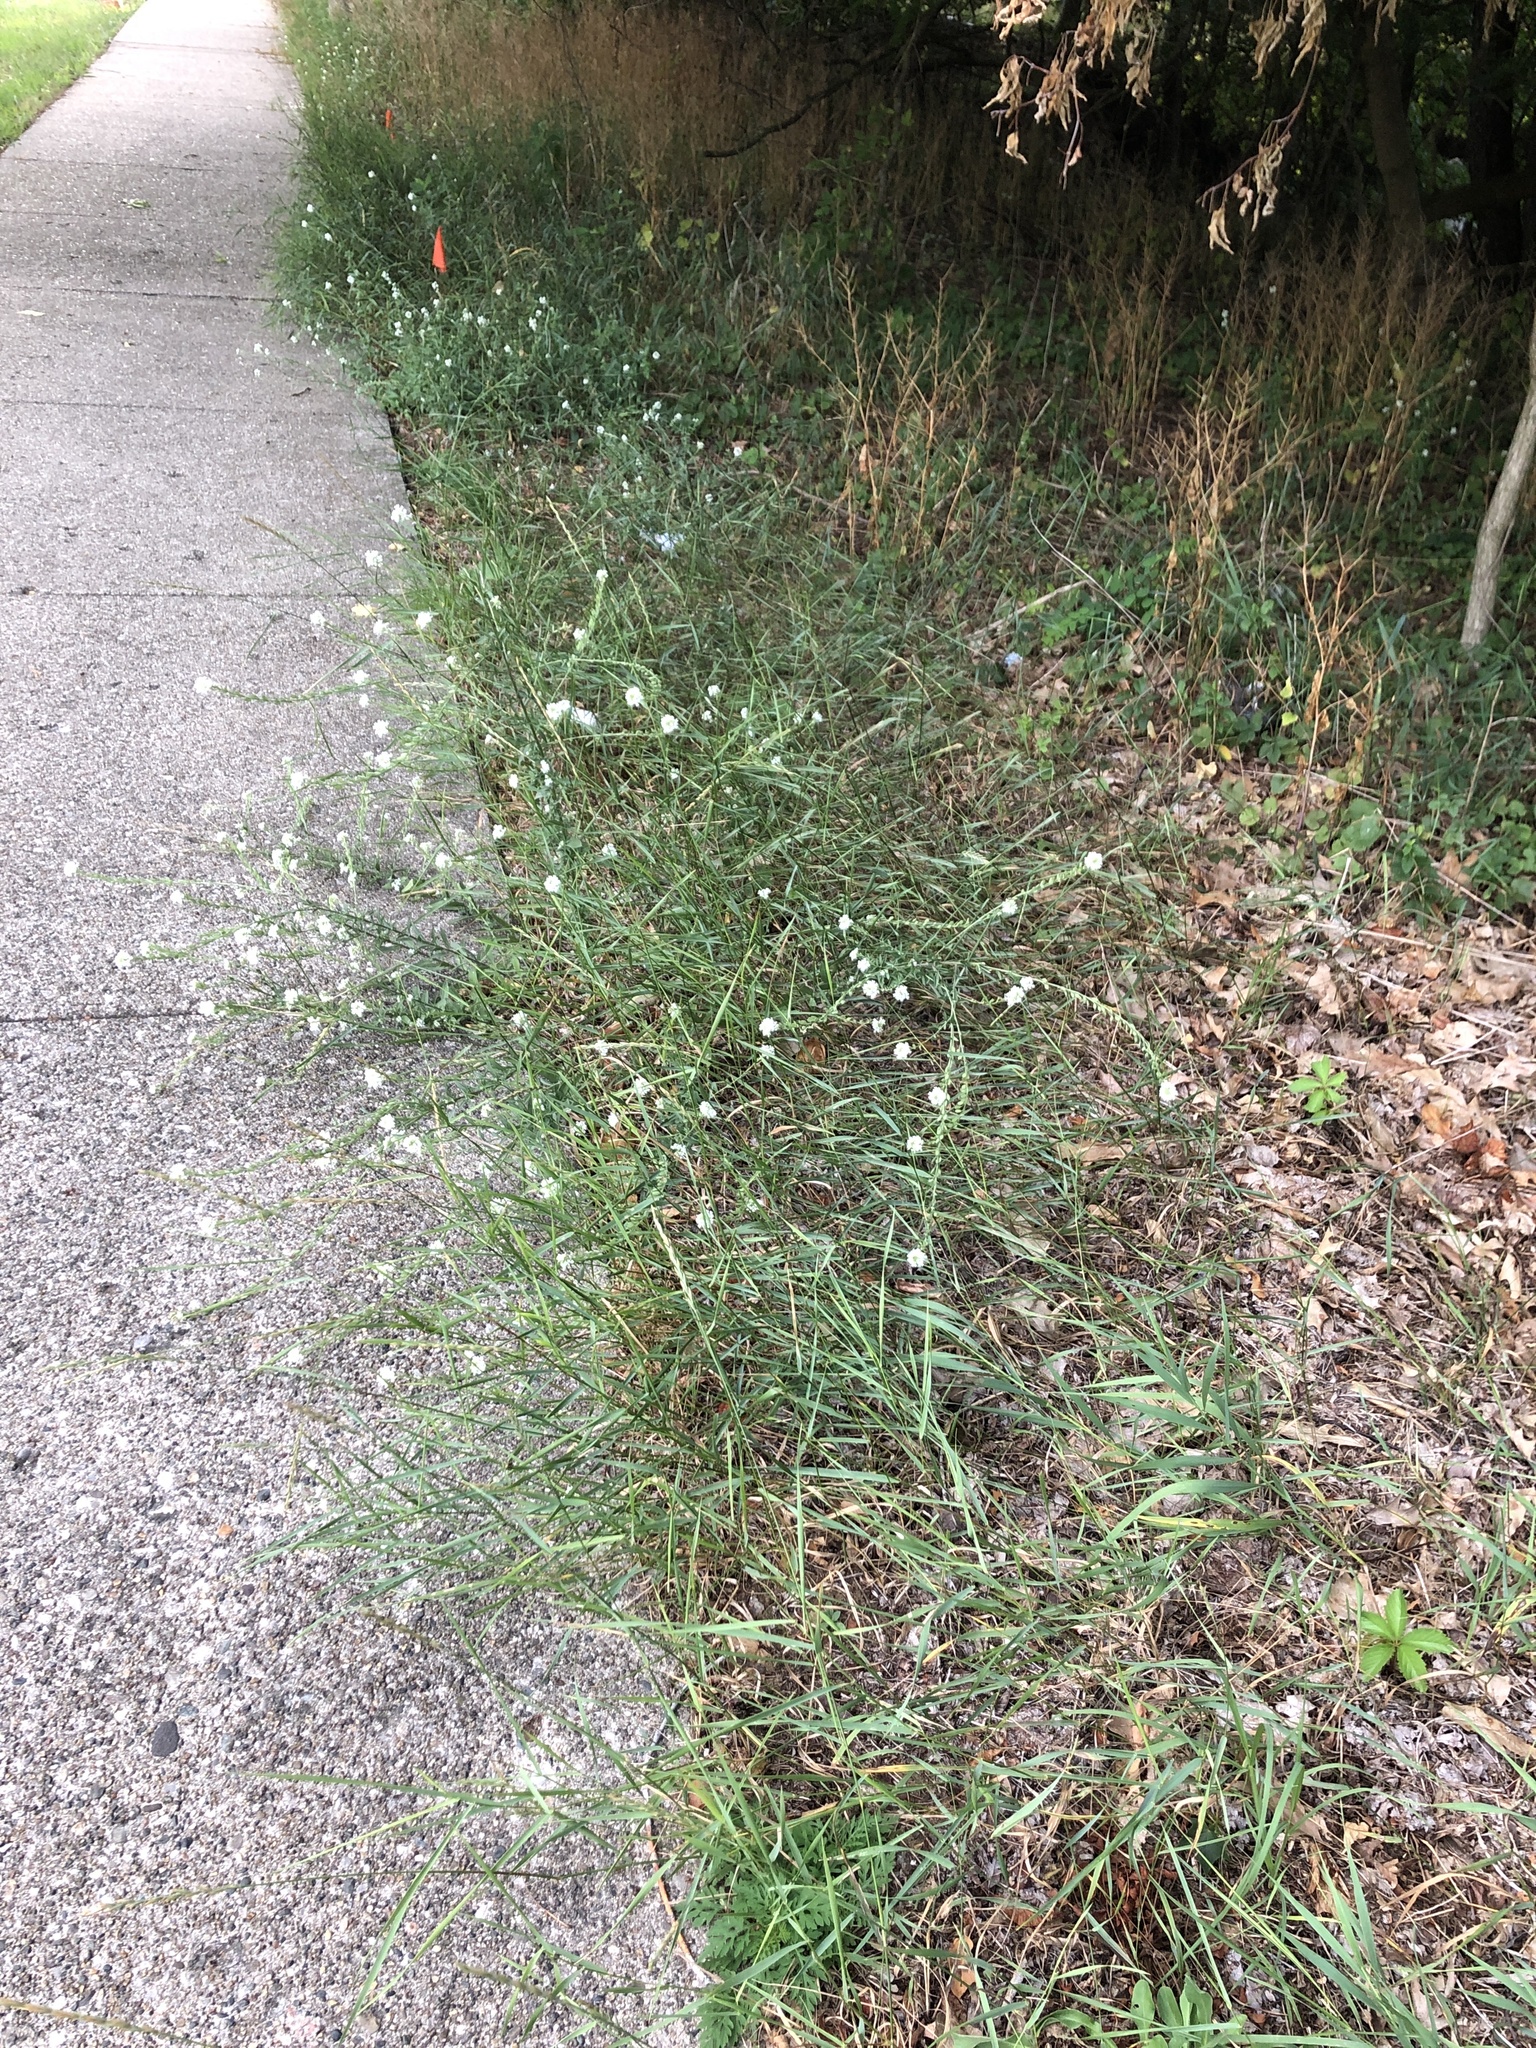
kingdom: Plantae
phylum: Tracheophyta
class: Magnoliopsida
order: Brassicales
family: Brassicaceae
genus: Berteroa
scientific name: Berteroa incana
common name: Hoary alison
